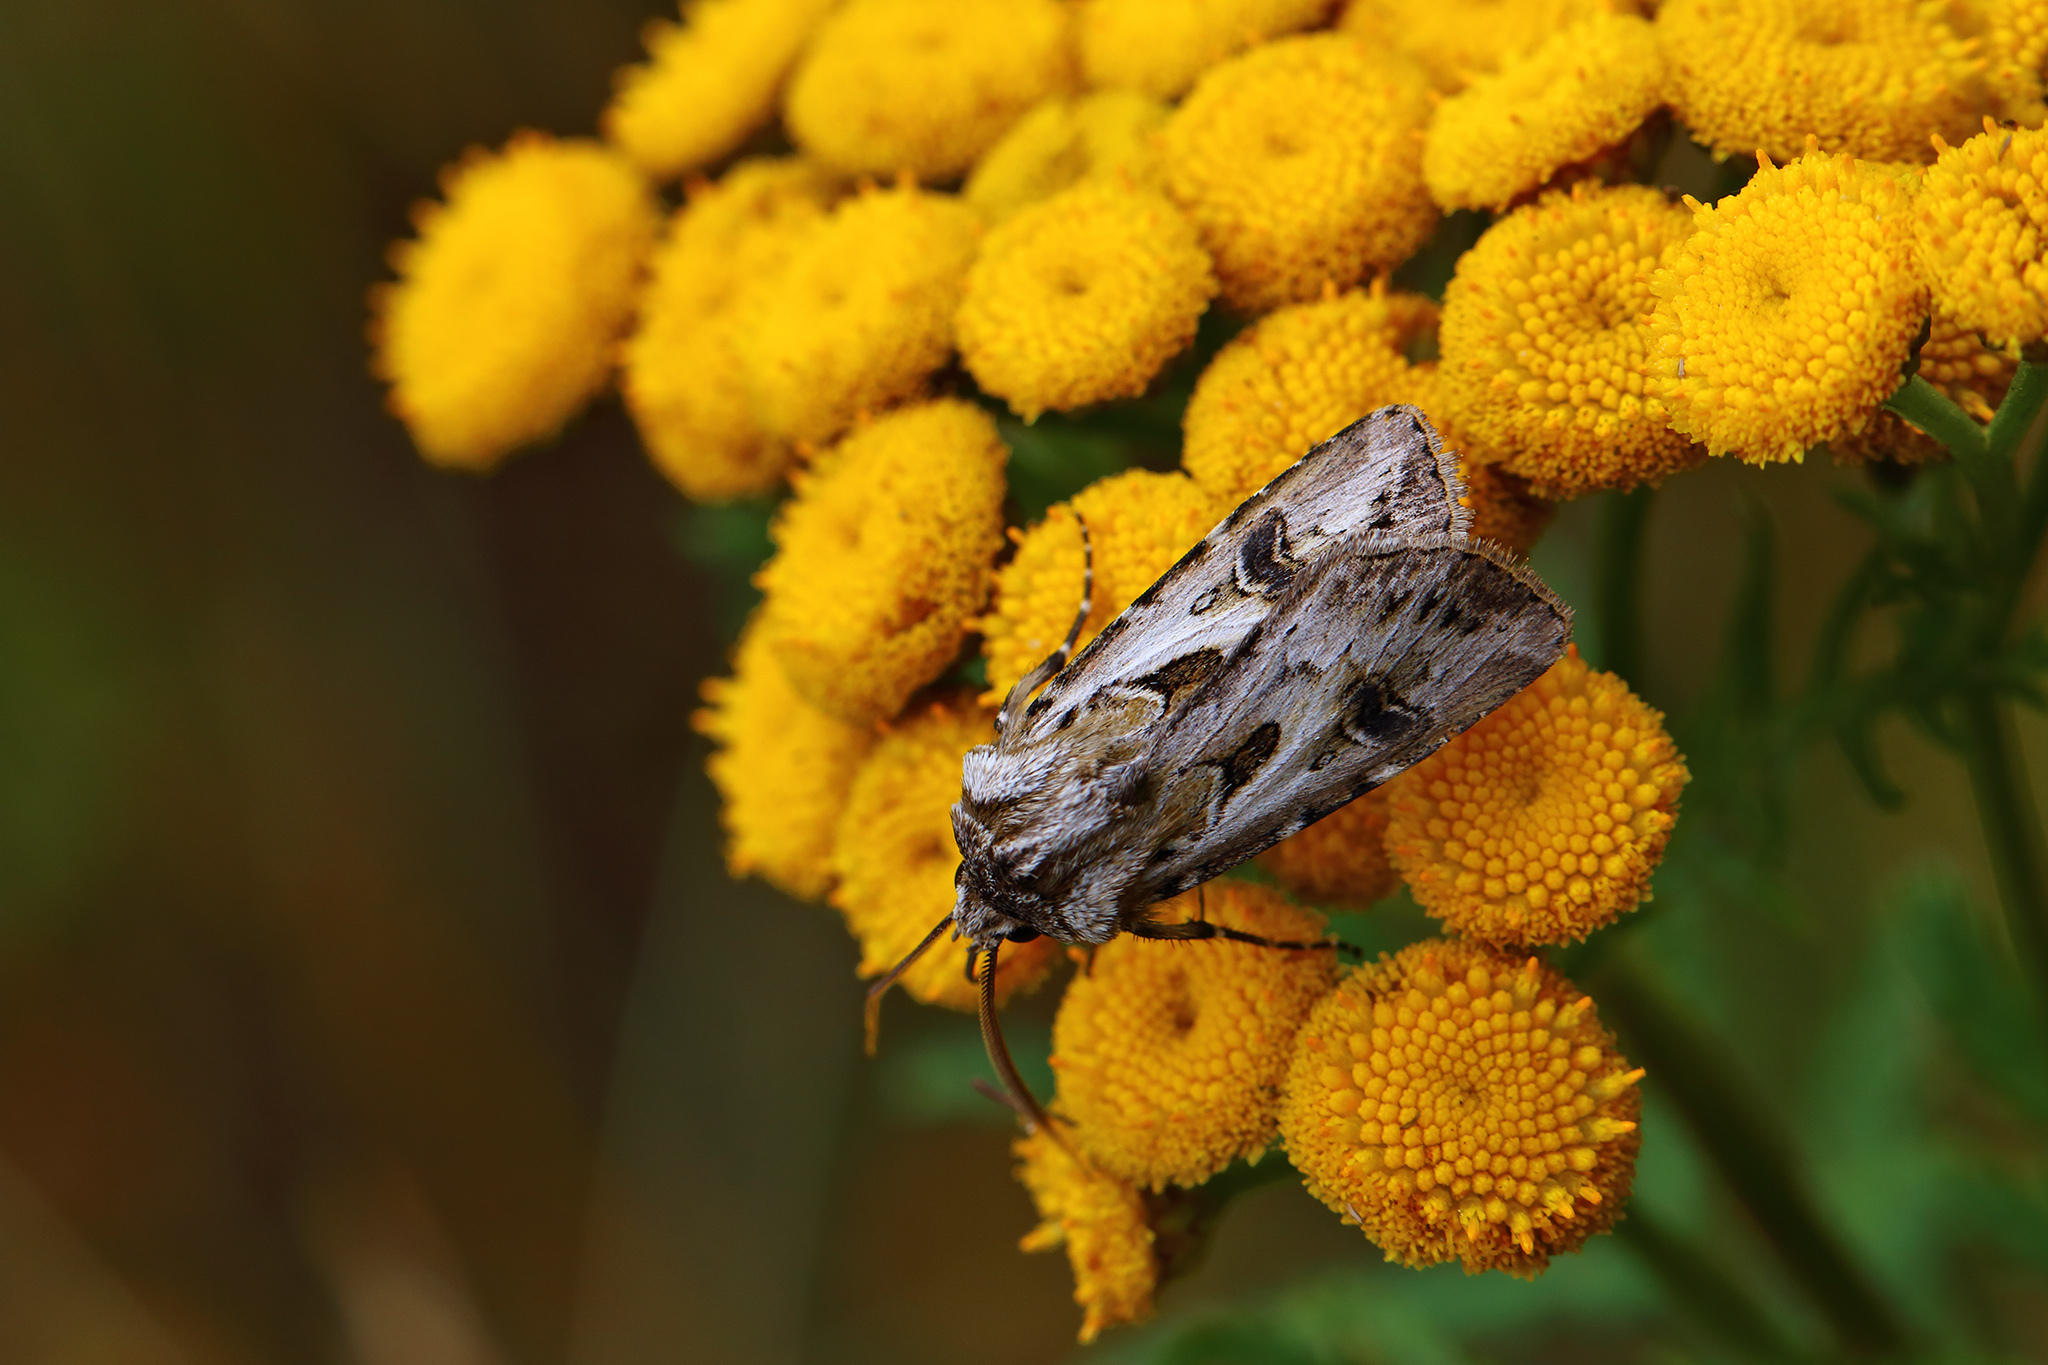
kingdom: Animalia
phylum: Arthropoda
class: Insecta
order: Lepidoptera
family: Noctuidae
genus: Agrotis
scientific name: Agrotis vestigialis
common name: Archer's dart
